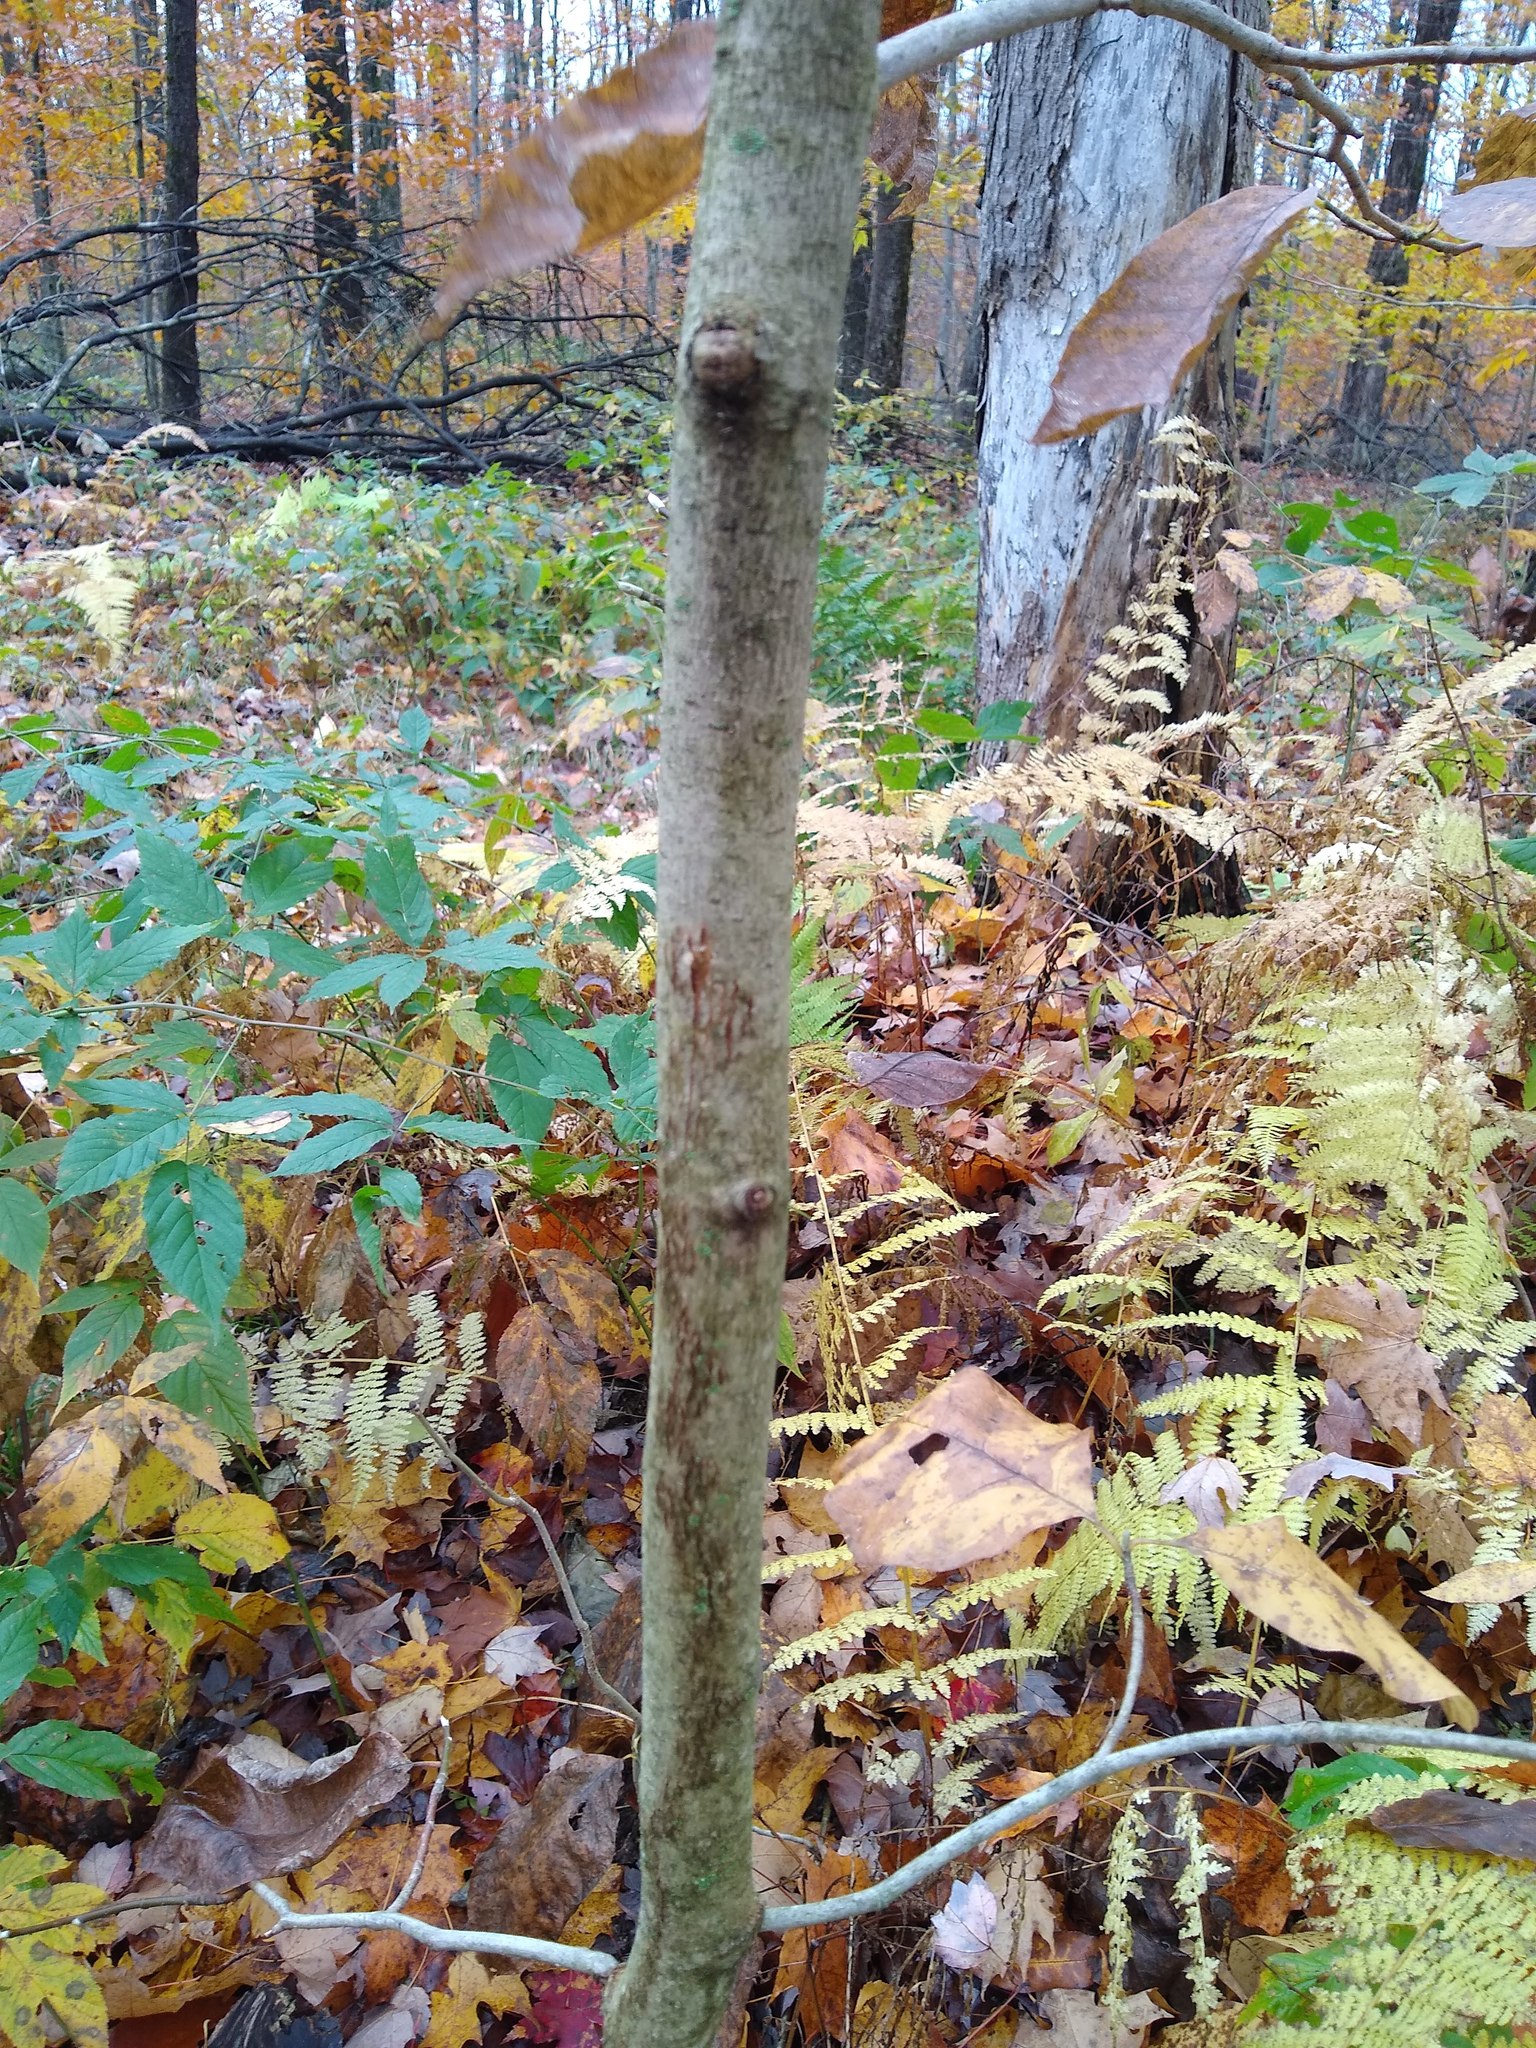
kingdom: Plantae
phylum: Tracheophyta
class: Magnoliopsida
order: Magnoliales
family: Magnoliaceae
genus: Magnolia
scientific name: Magnolia acuminata
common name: Cucumber magnolia
